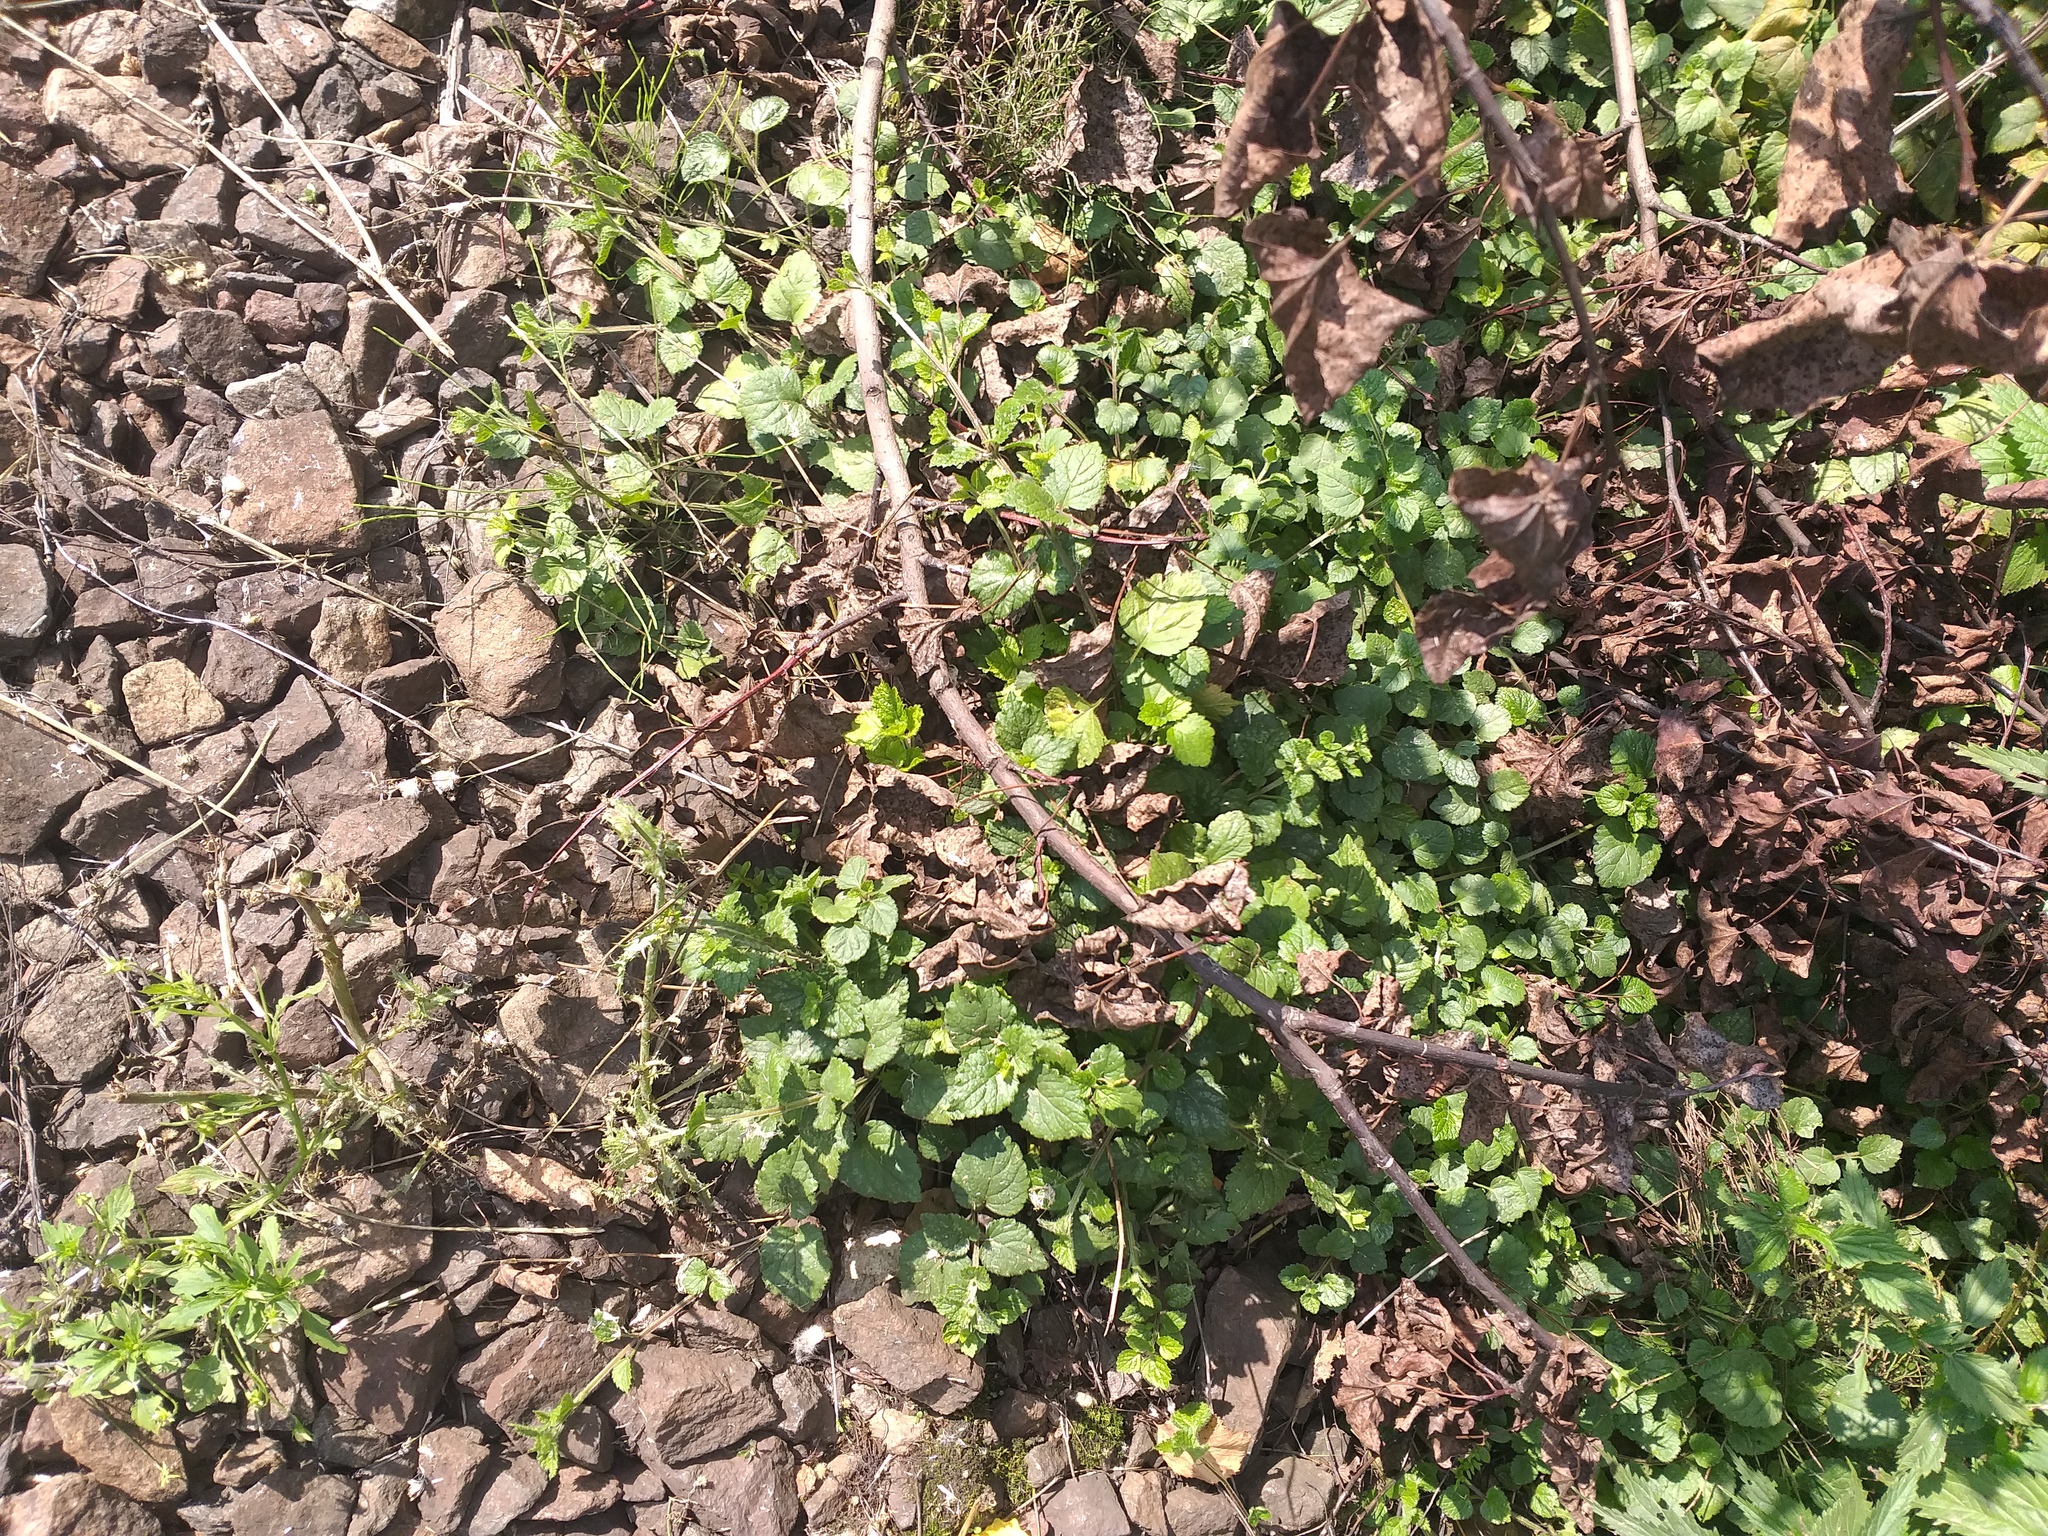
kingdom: Plantae
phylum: Tracheophyta
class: Magnoliopsida
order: Lamiales
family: Lamiaceae
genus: Lamium
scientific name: Lamium galeobdolon
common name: Yellow archangel
